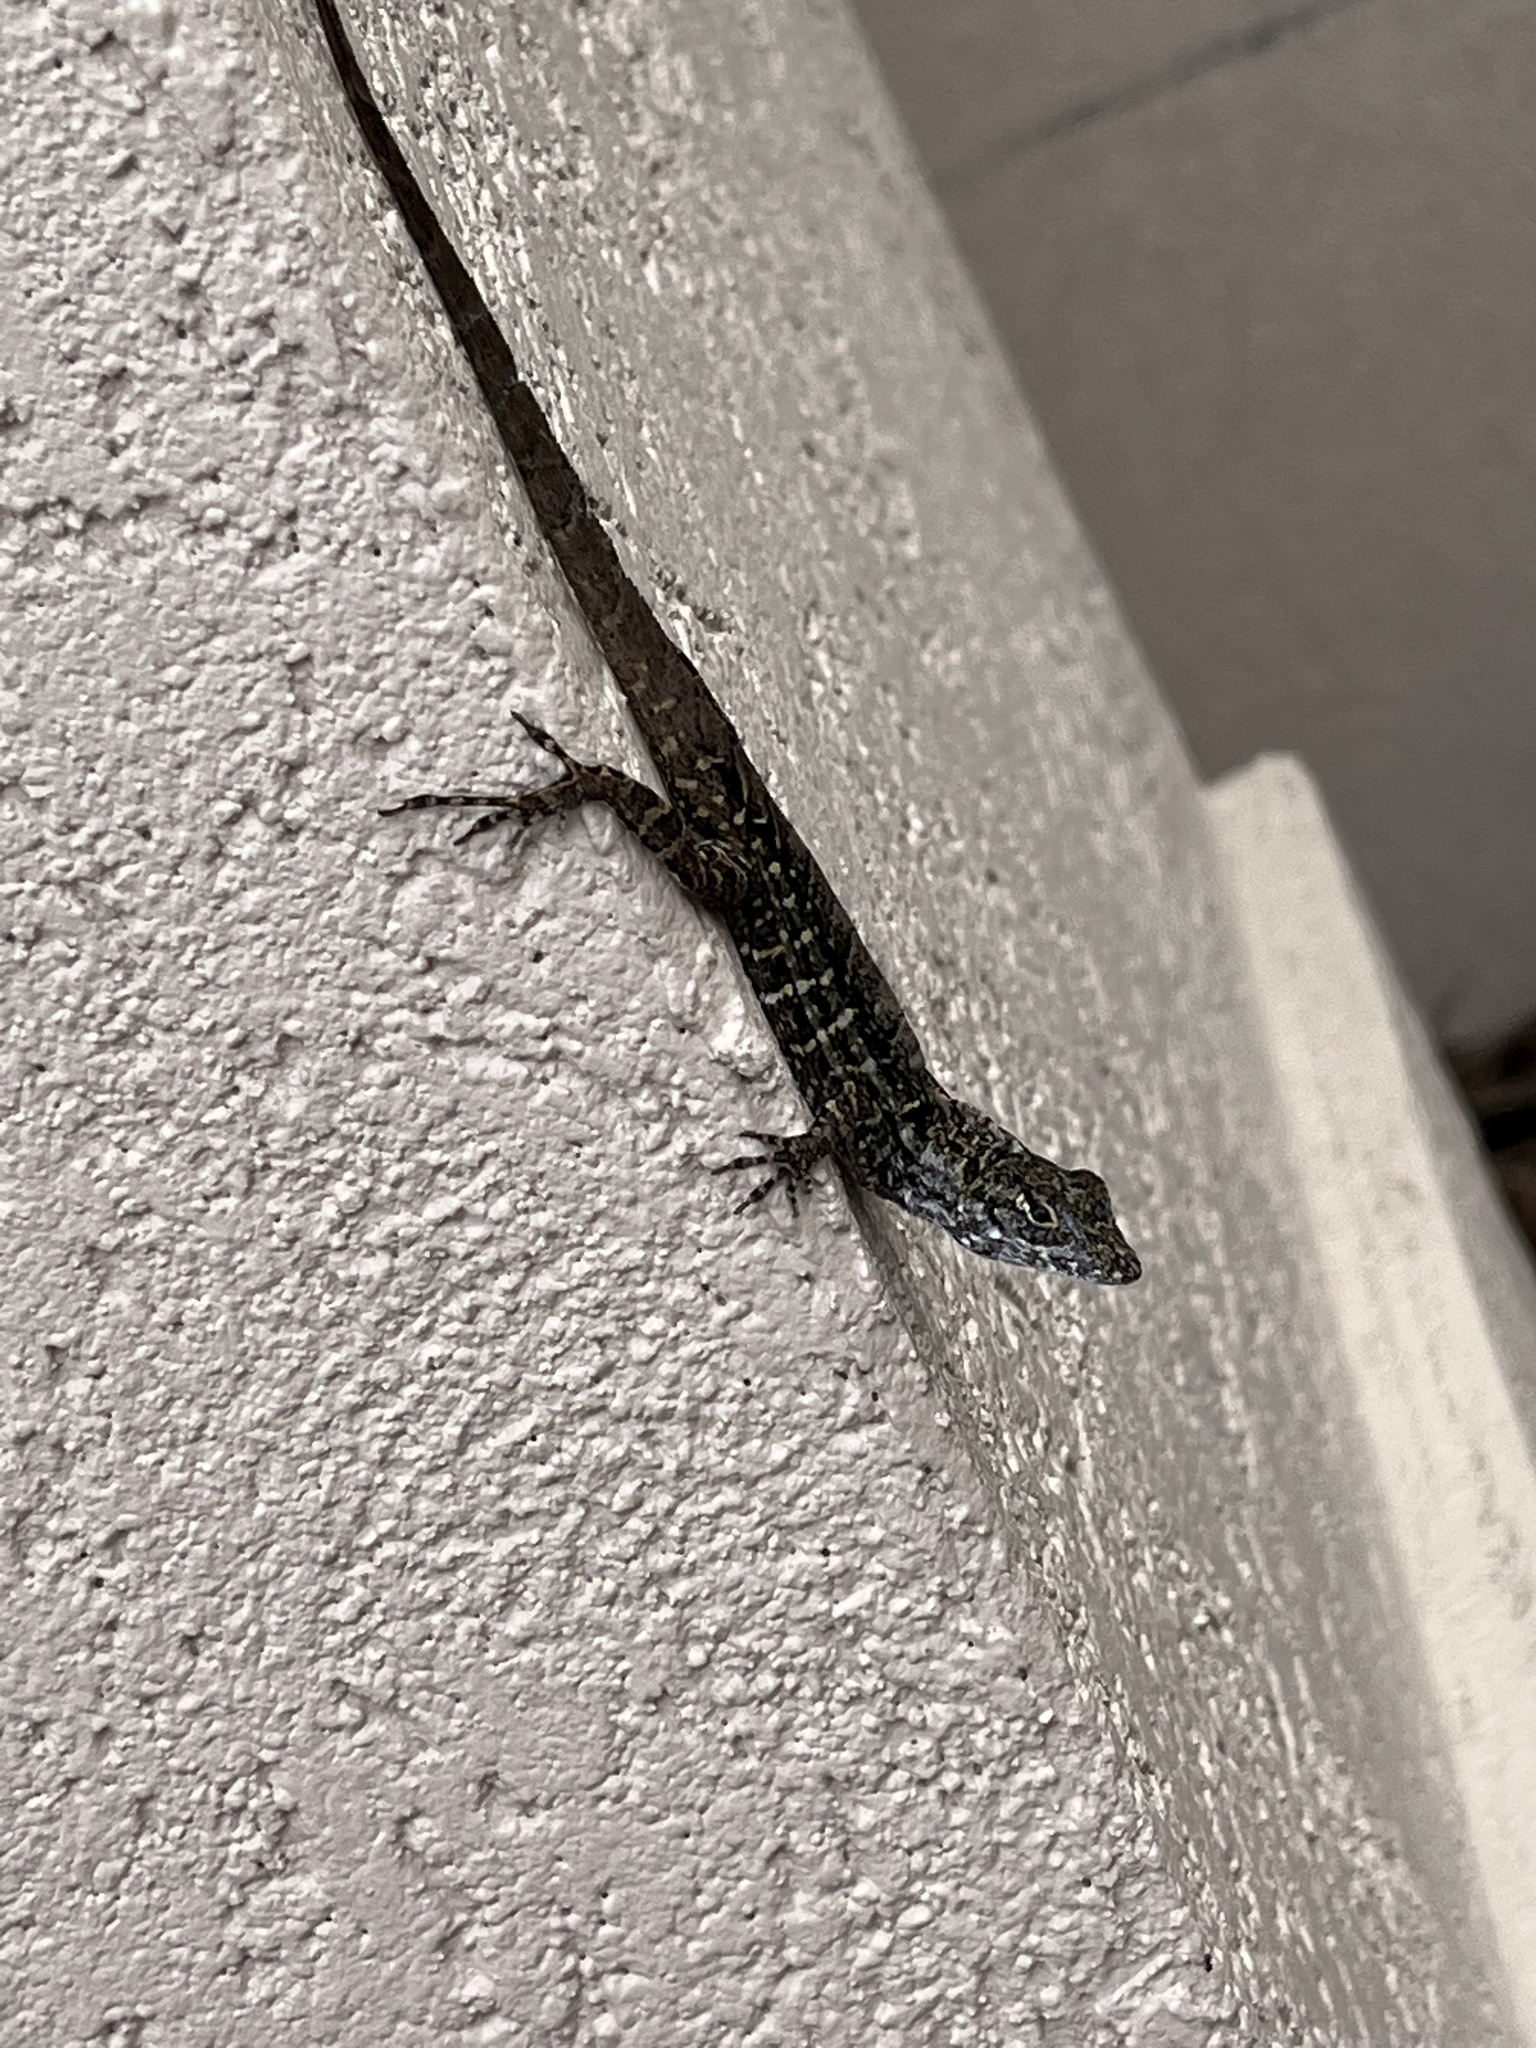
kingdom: Animalia
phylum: Chordata
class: Squamata
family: Dactyloidae
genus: Anolis
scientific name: Anolis sagrei
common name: Brown anole
